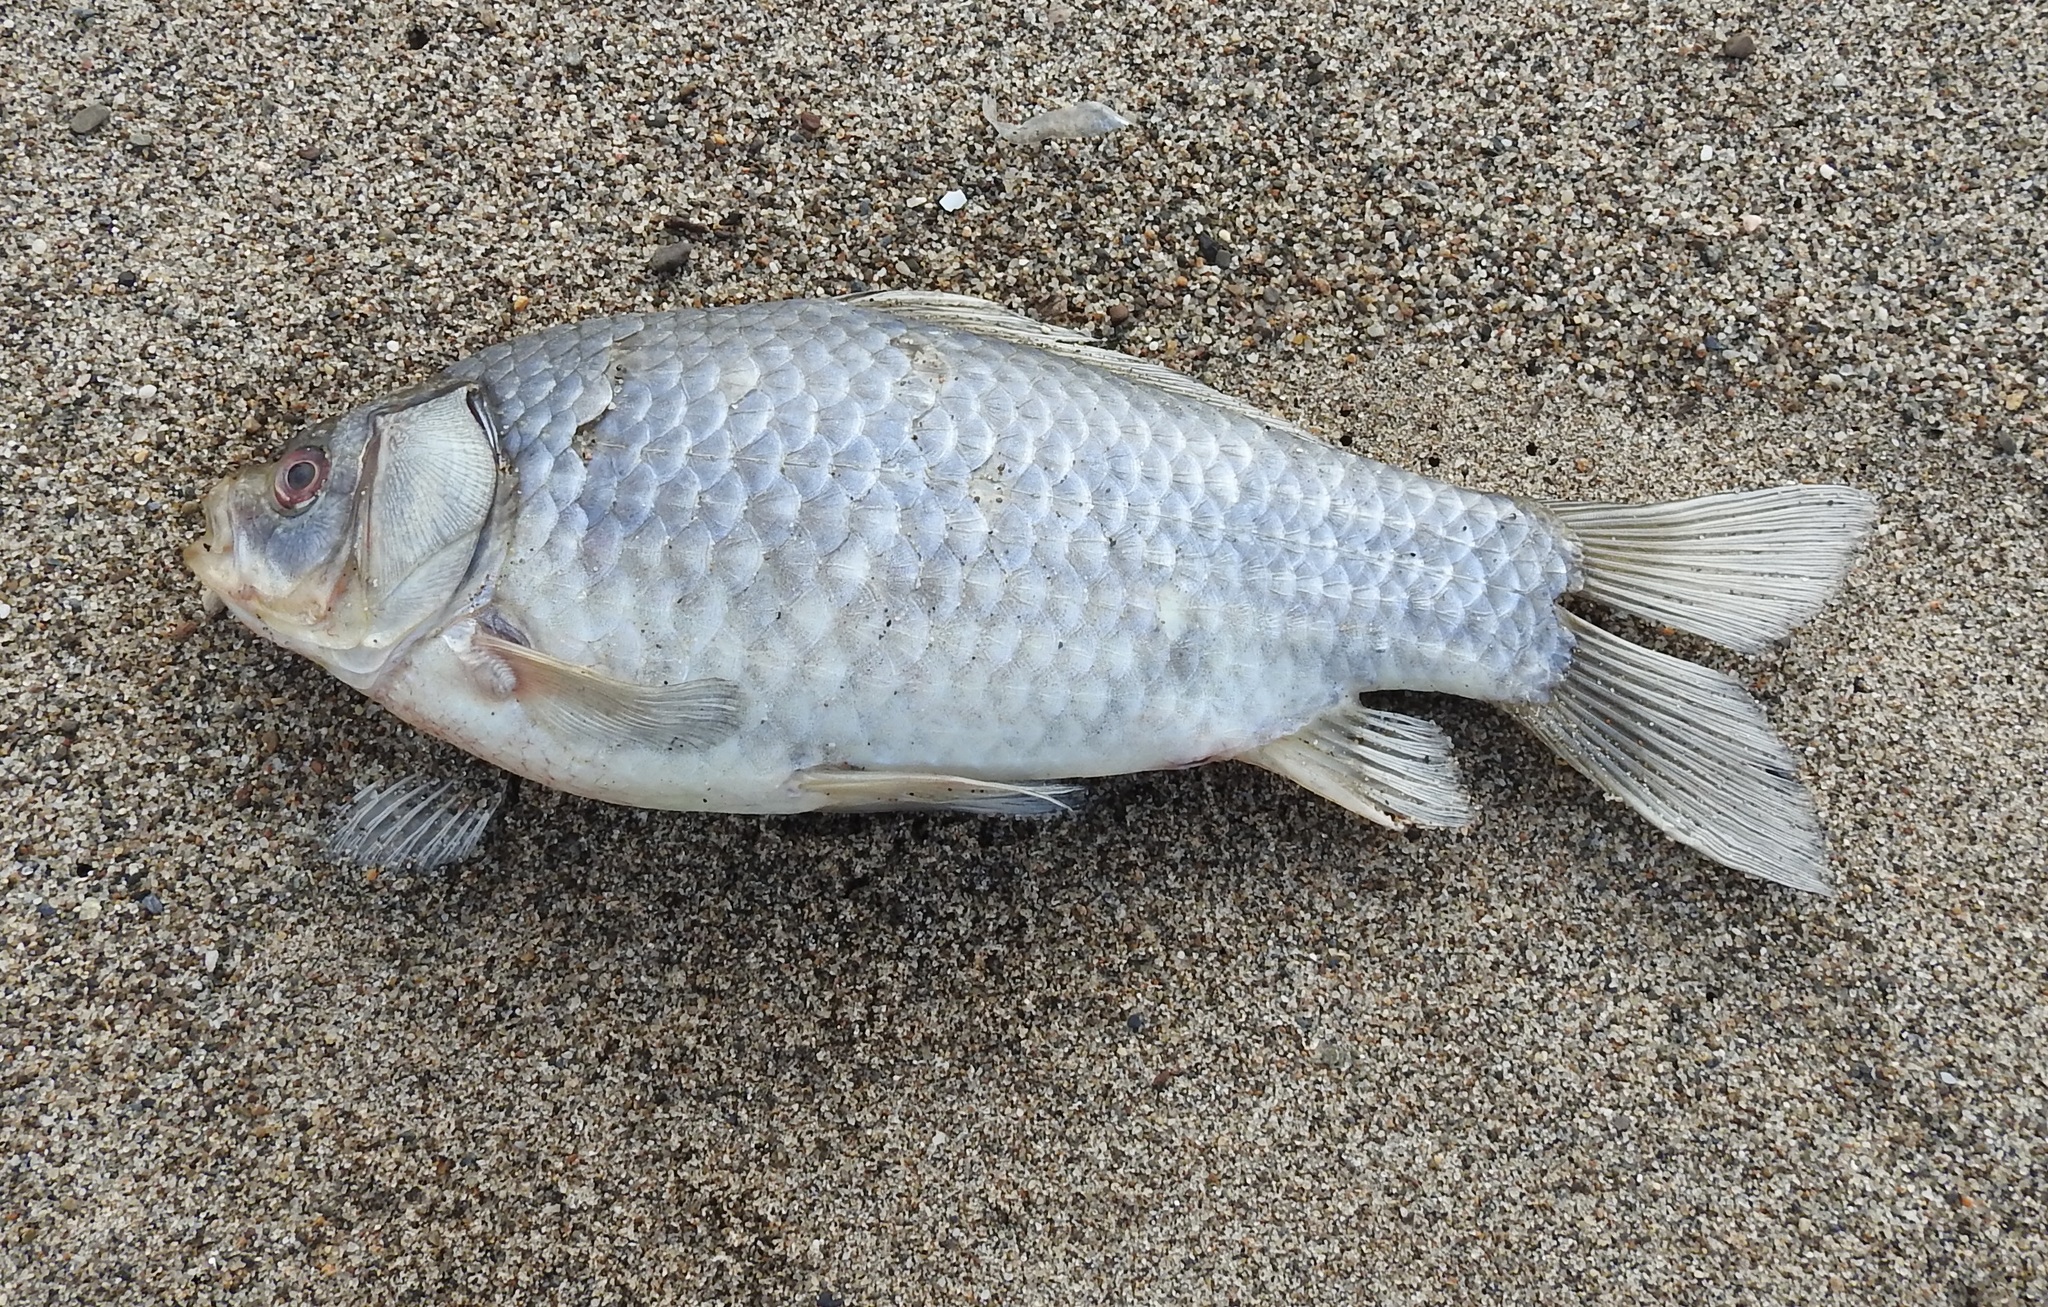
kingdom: Animalia
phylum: Chordata
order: Cypriniformes
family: Cyprinidae
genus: Carassius
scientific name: Carassius gibelio
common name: Prussian carp
